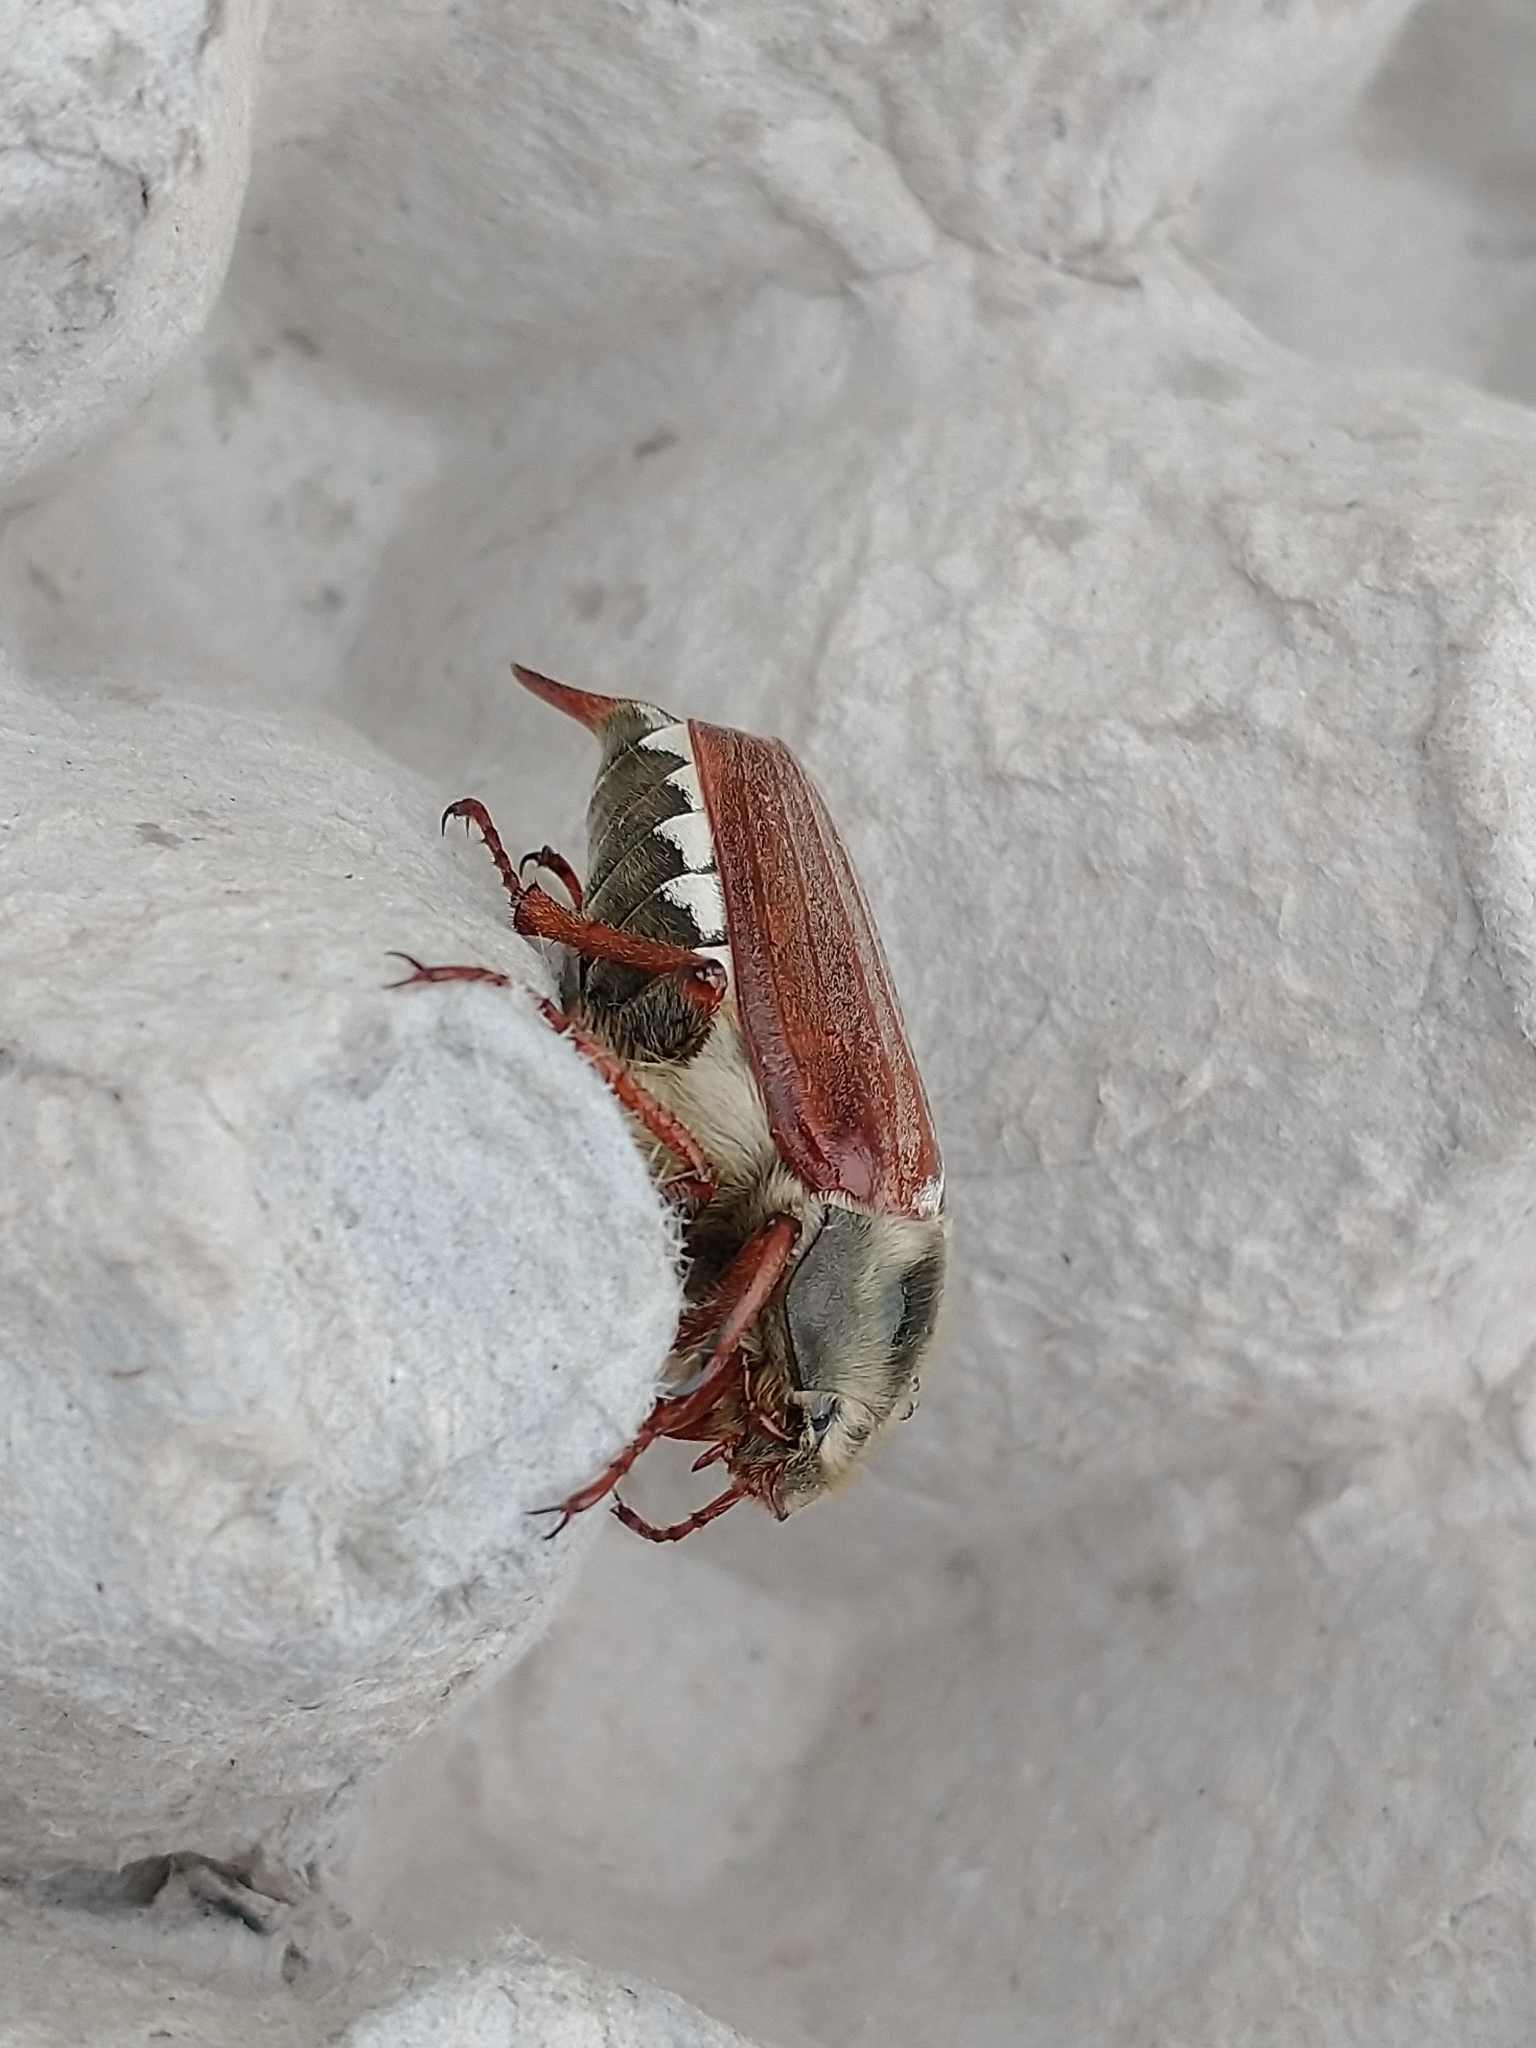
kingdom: Animalia
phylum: Arthropoda
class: Insecta
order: Coleoptera
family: Scarabaeidae
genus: Melolontha
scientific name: Melolontha melolontha
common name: Cockchafer maybeetle
